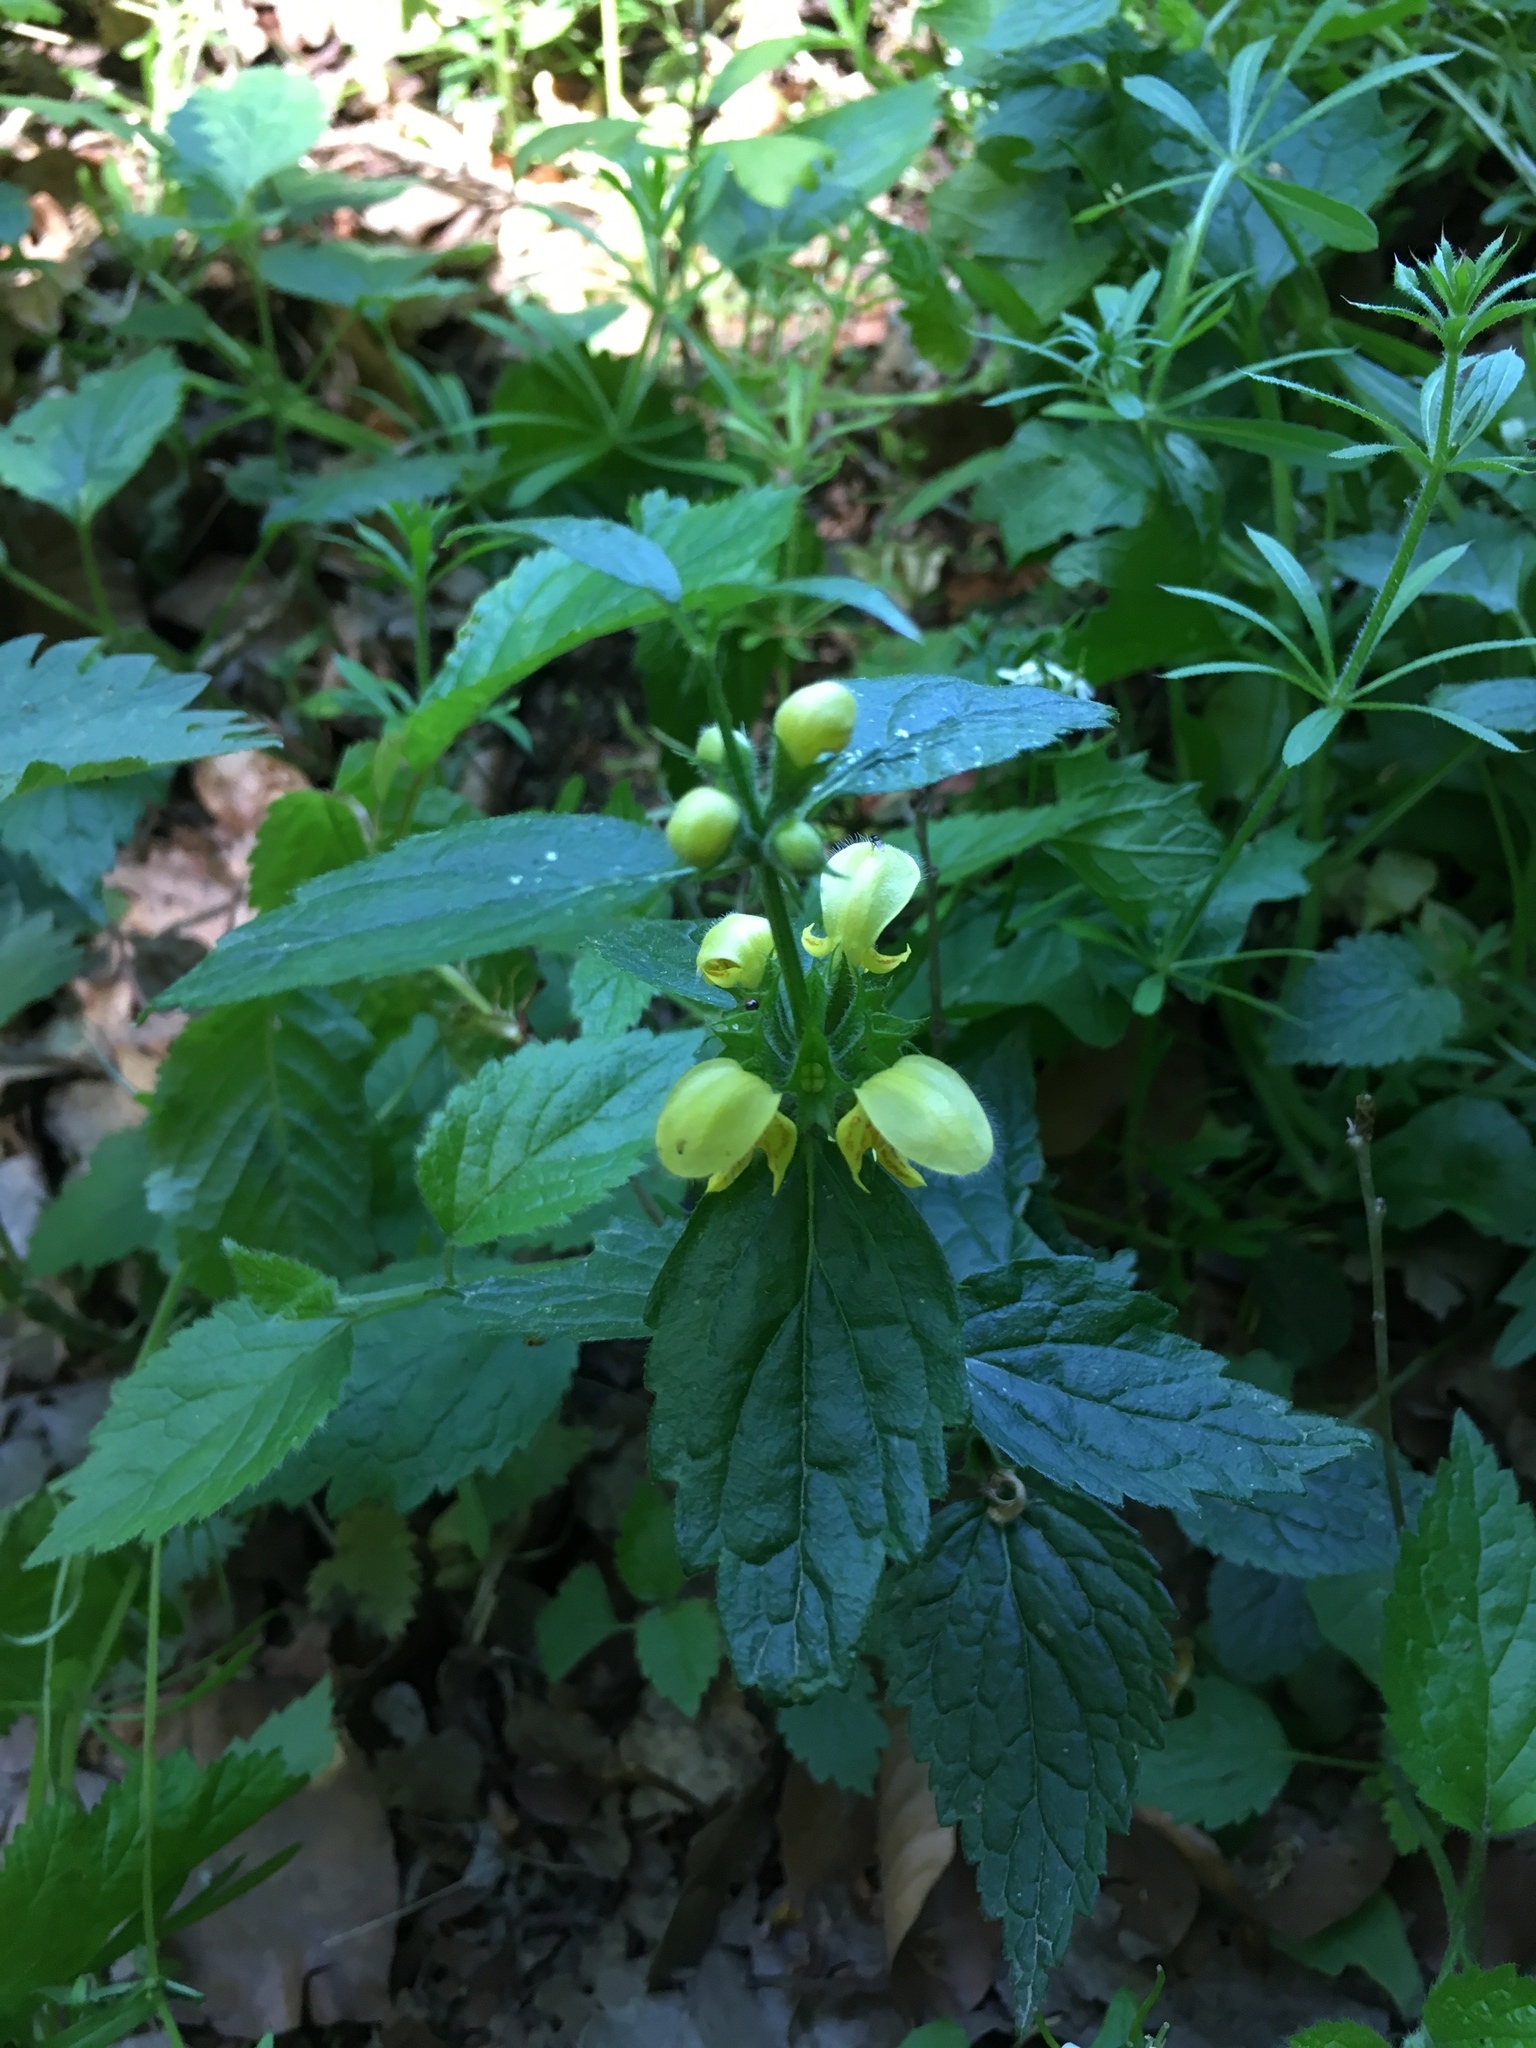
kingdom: Plantae
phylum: Tracheophyta
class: Magnoliopsida
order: Lamiales
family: Lamiaceae
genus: Lamium
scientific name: Lamium galeobdolon
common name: Yellow archangel
